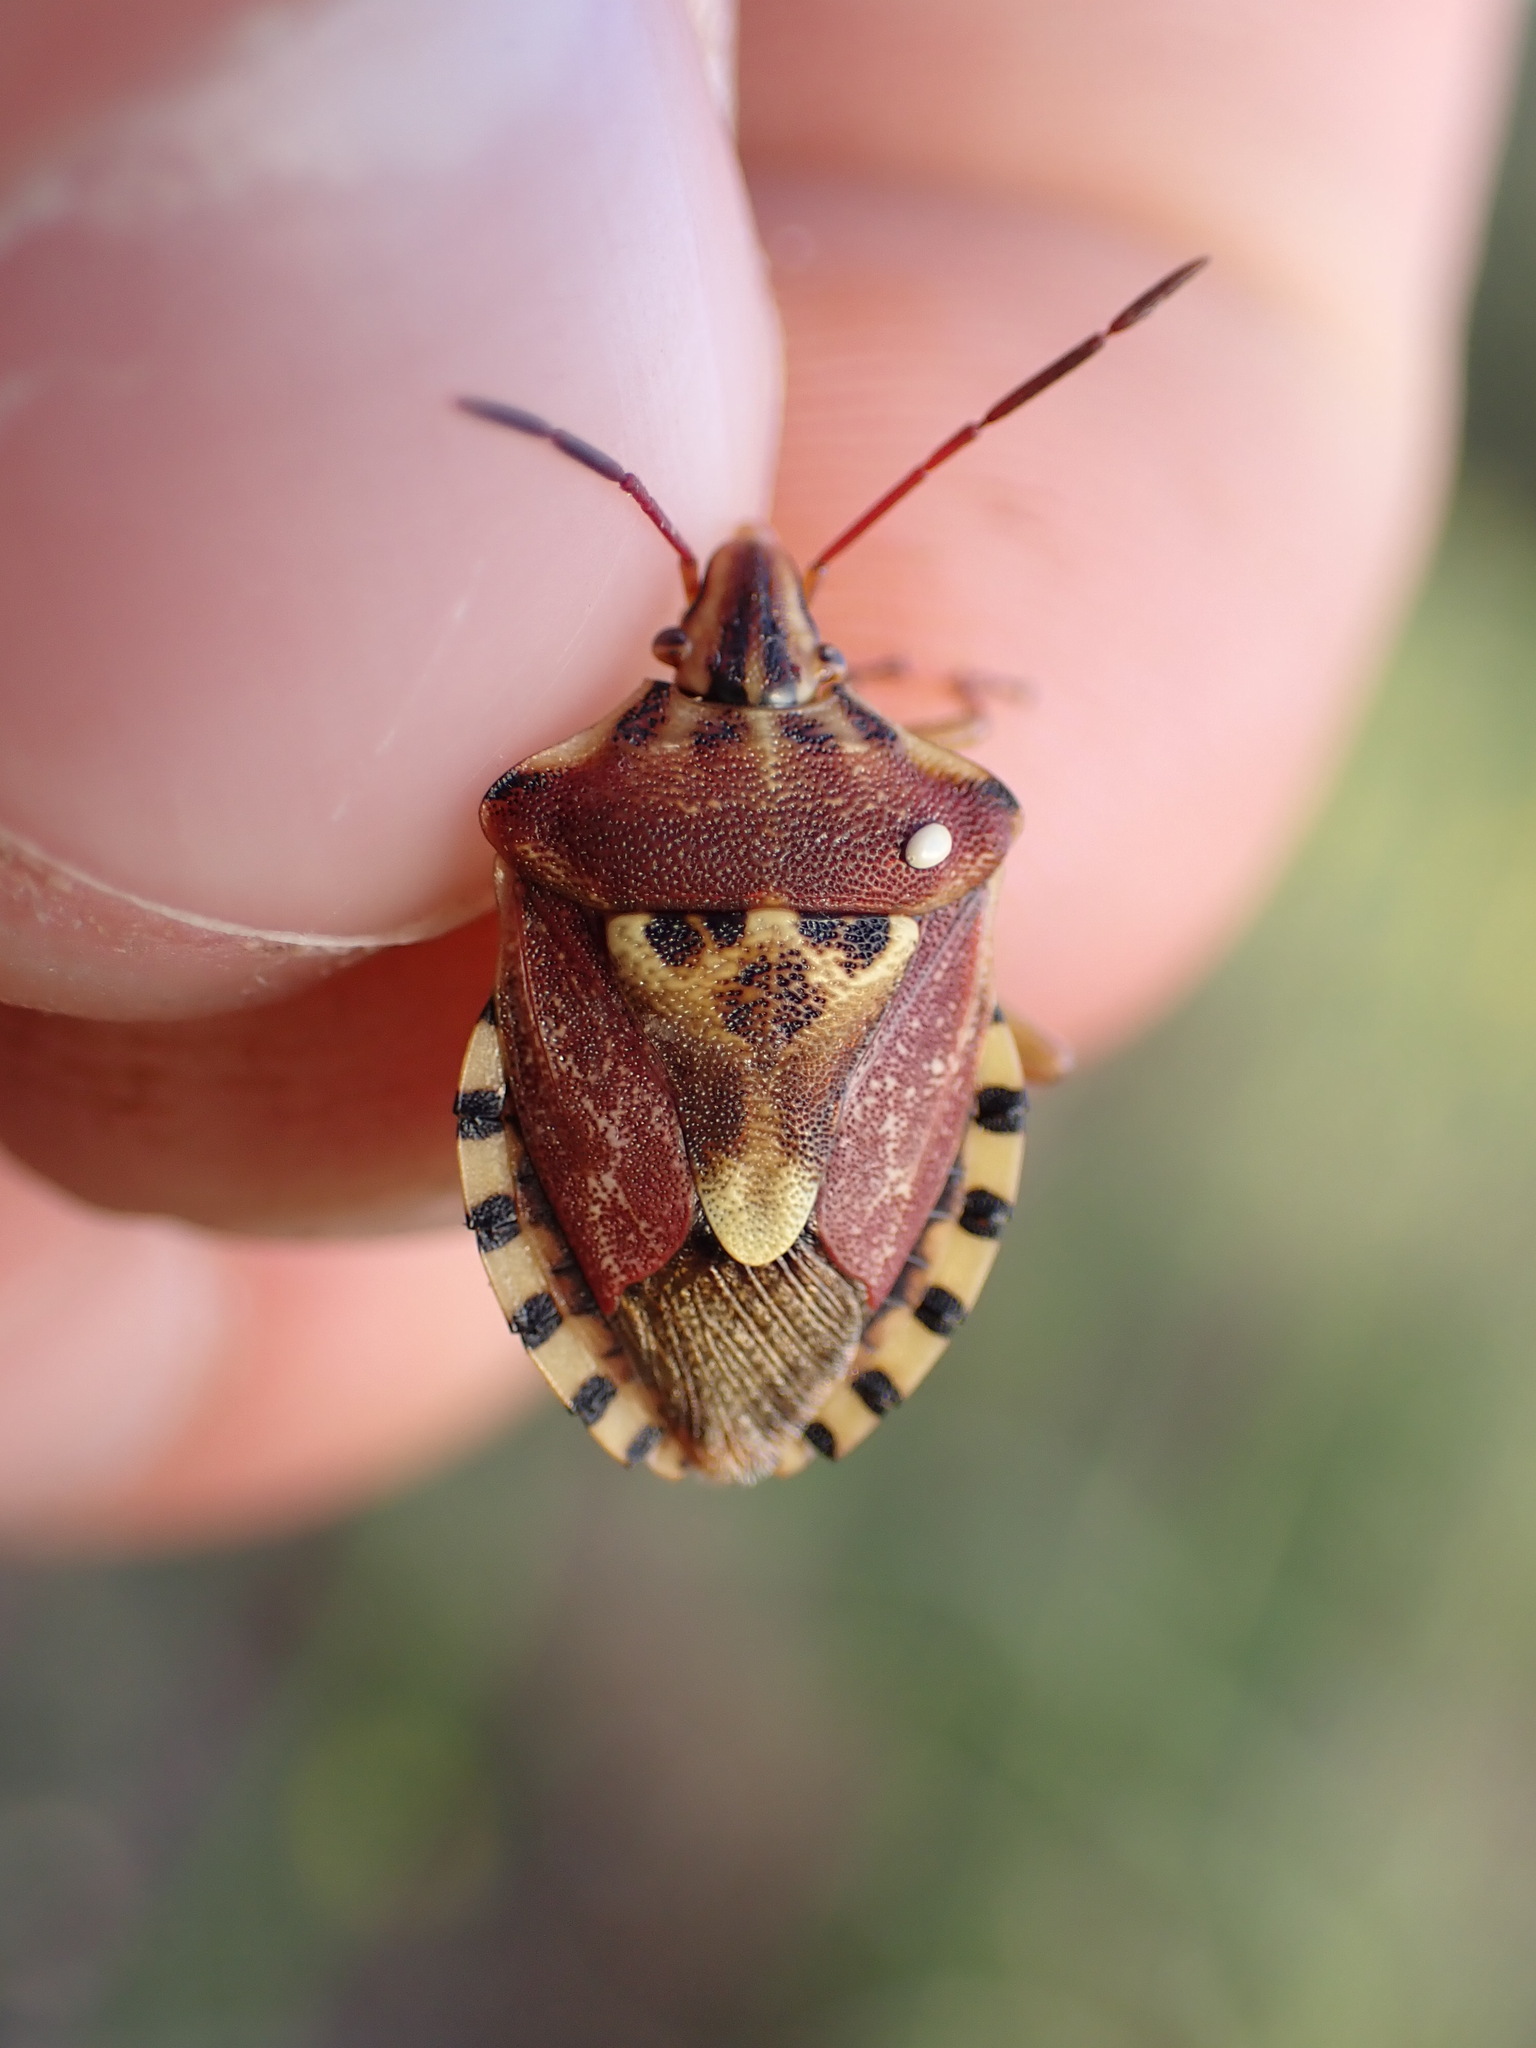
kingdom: Animalia
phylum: Arthropoda
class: Insecta
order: Hemiptera
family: Miridae
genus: Orthops
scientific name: Orthops kalmii
